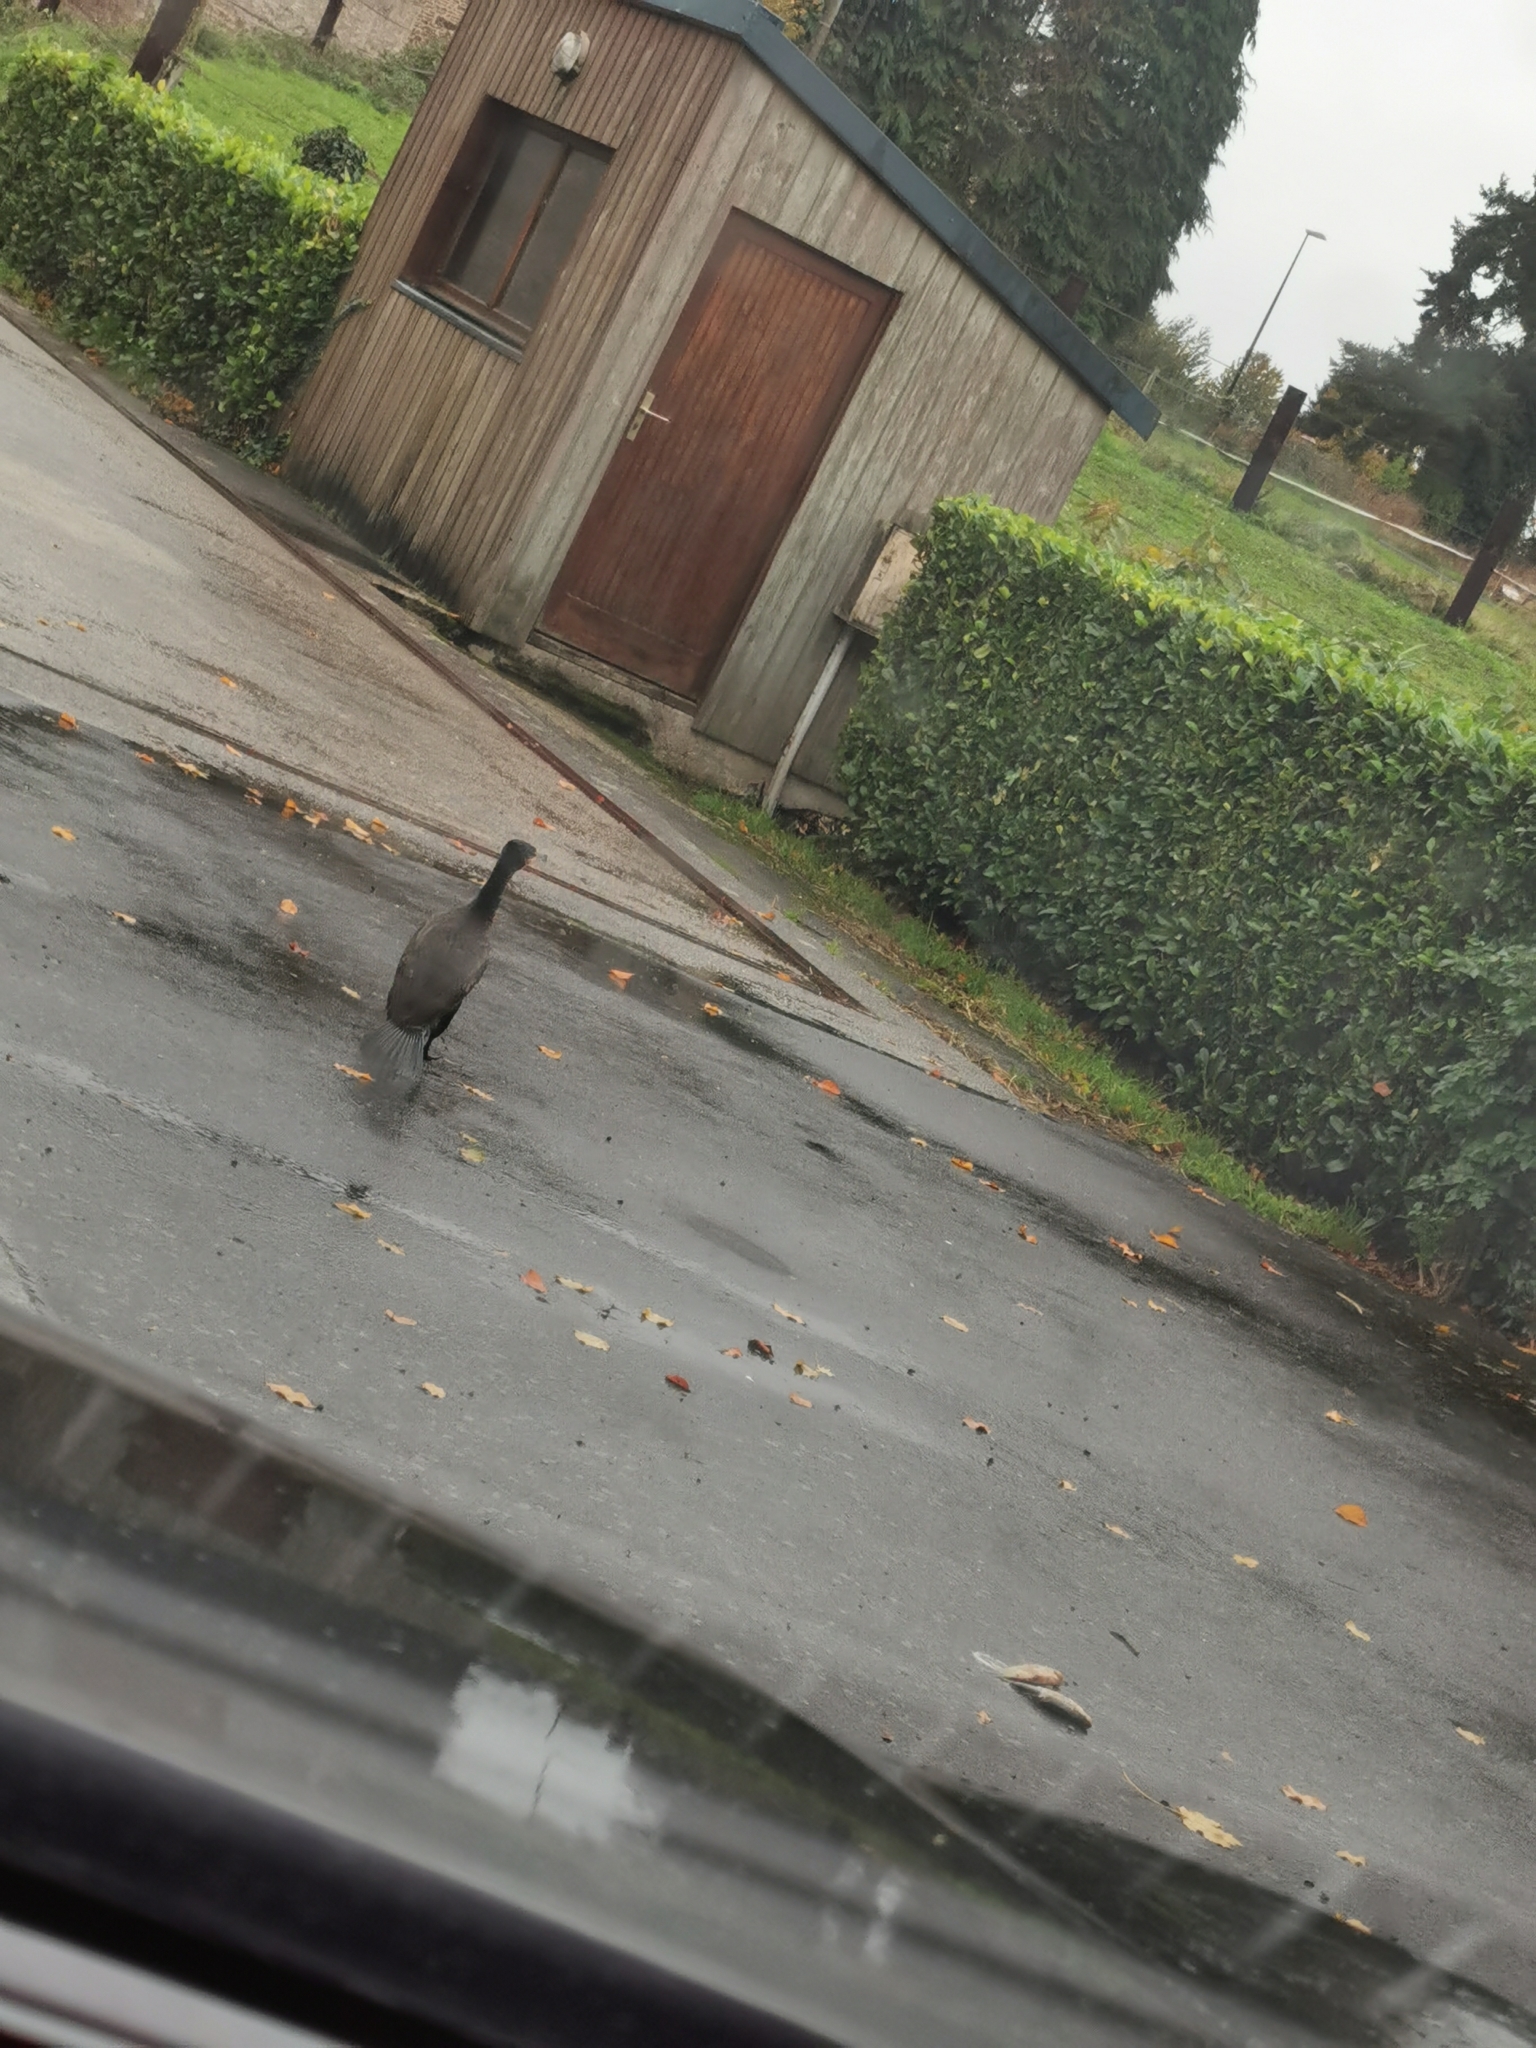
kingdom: Animalia
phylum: Chordata
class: Aves
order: Suliformes
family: Phalacrocoracidae
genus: Phalacrocorax
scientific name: Phalacrocorax carbo
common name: Great cormorant
